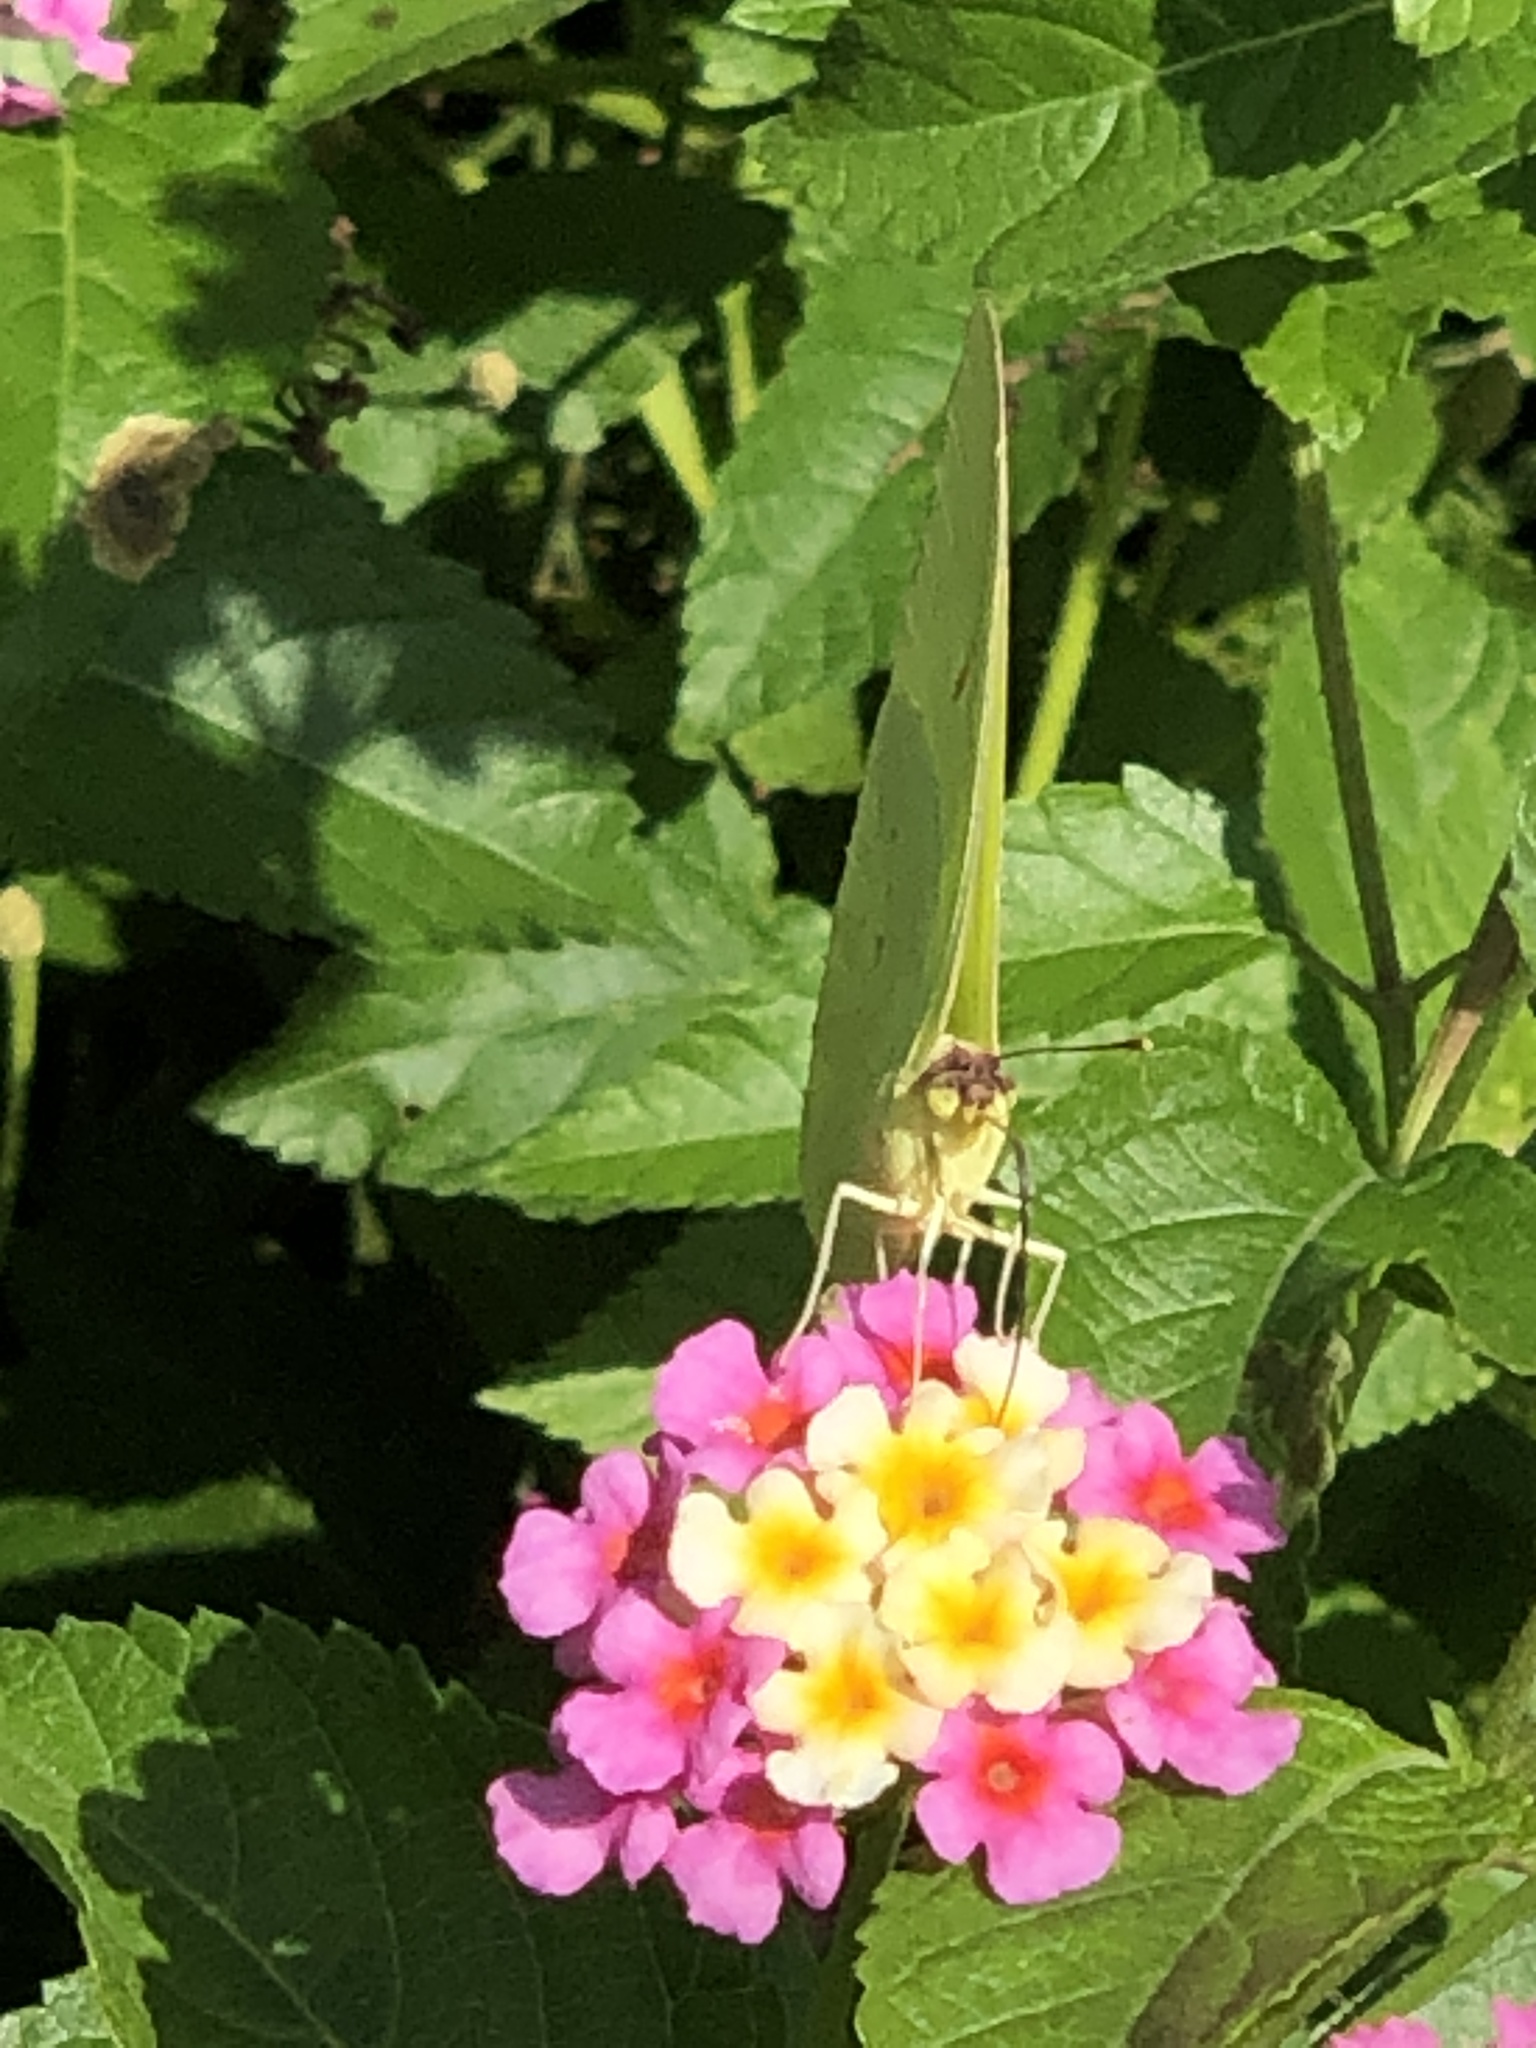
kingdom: Animalia
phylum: Arthropoda
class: Insecta
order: Lepidoptera
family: Pieridae
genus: Phoebis
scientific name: Phoebis sennae
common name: Cloudless sulphur
